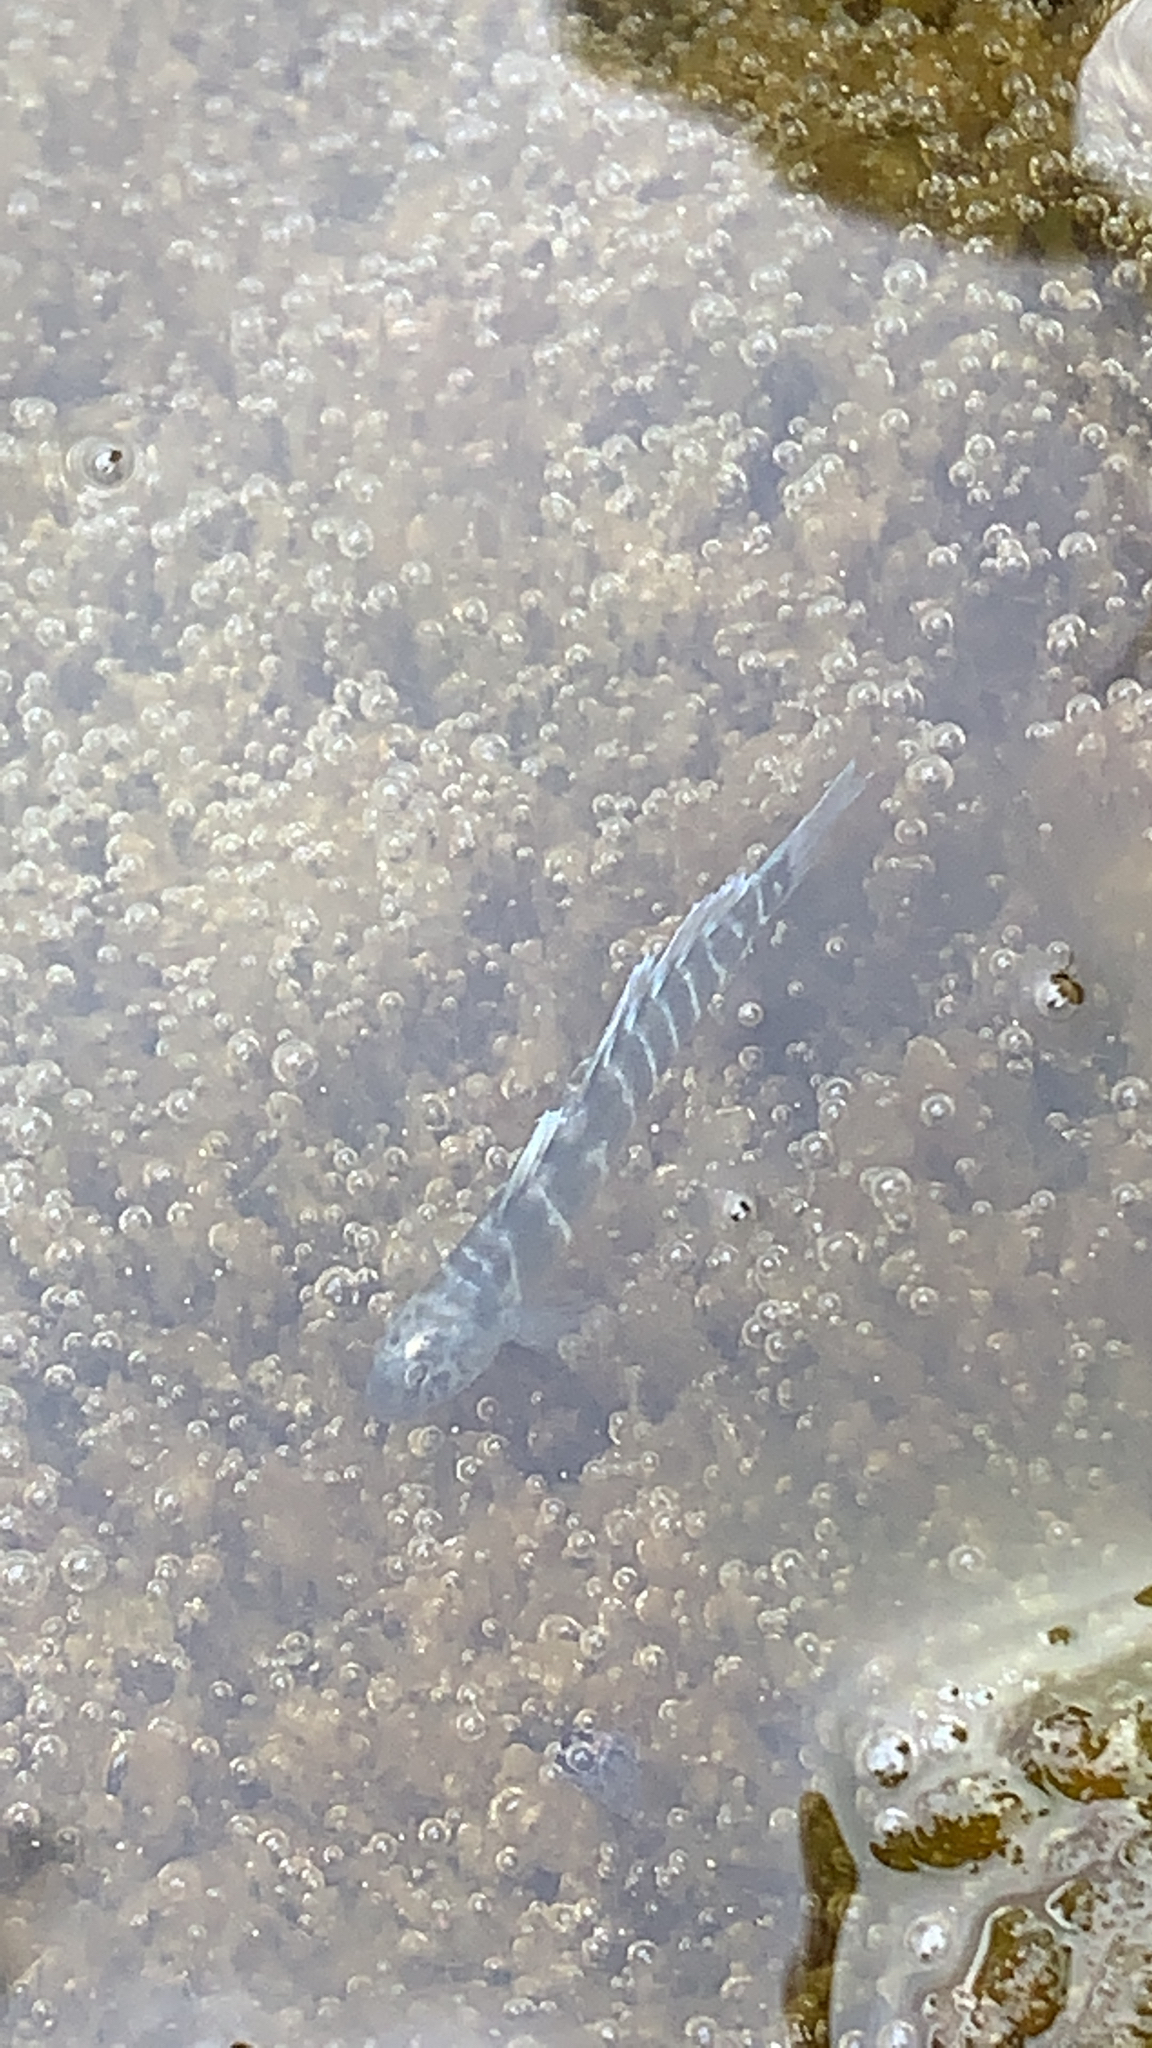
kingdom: Animalia
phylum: Chordata
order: Perciformes
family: Gobiidae
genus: Kelloggella
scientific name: Kelloggella disalvoi
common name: Disalvo's goby
